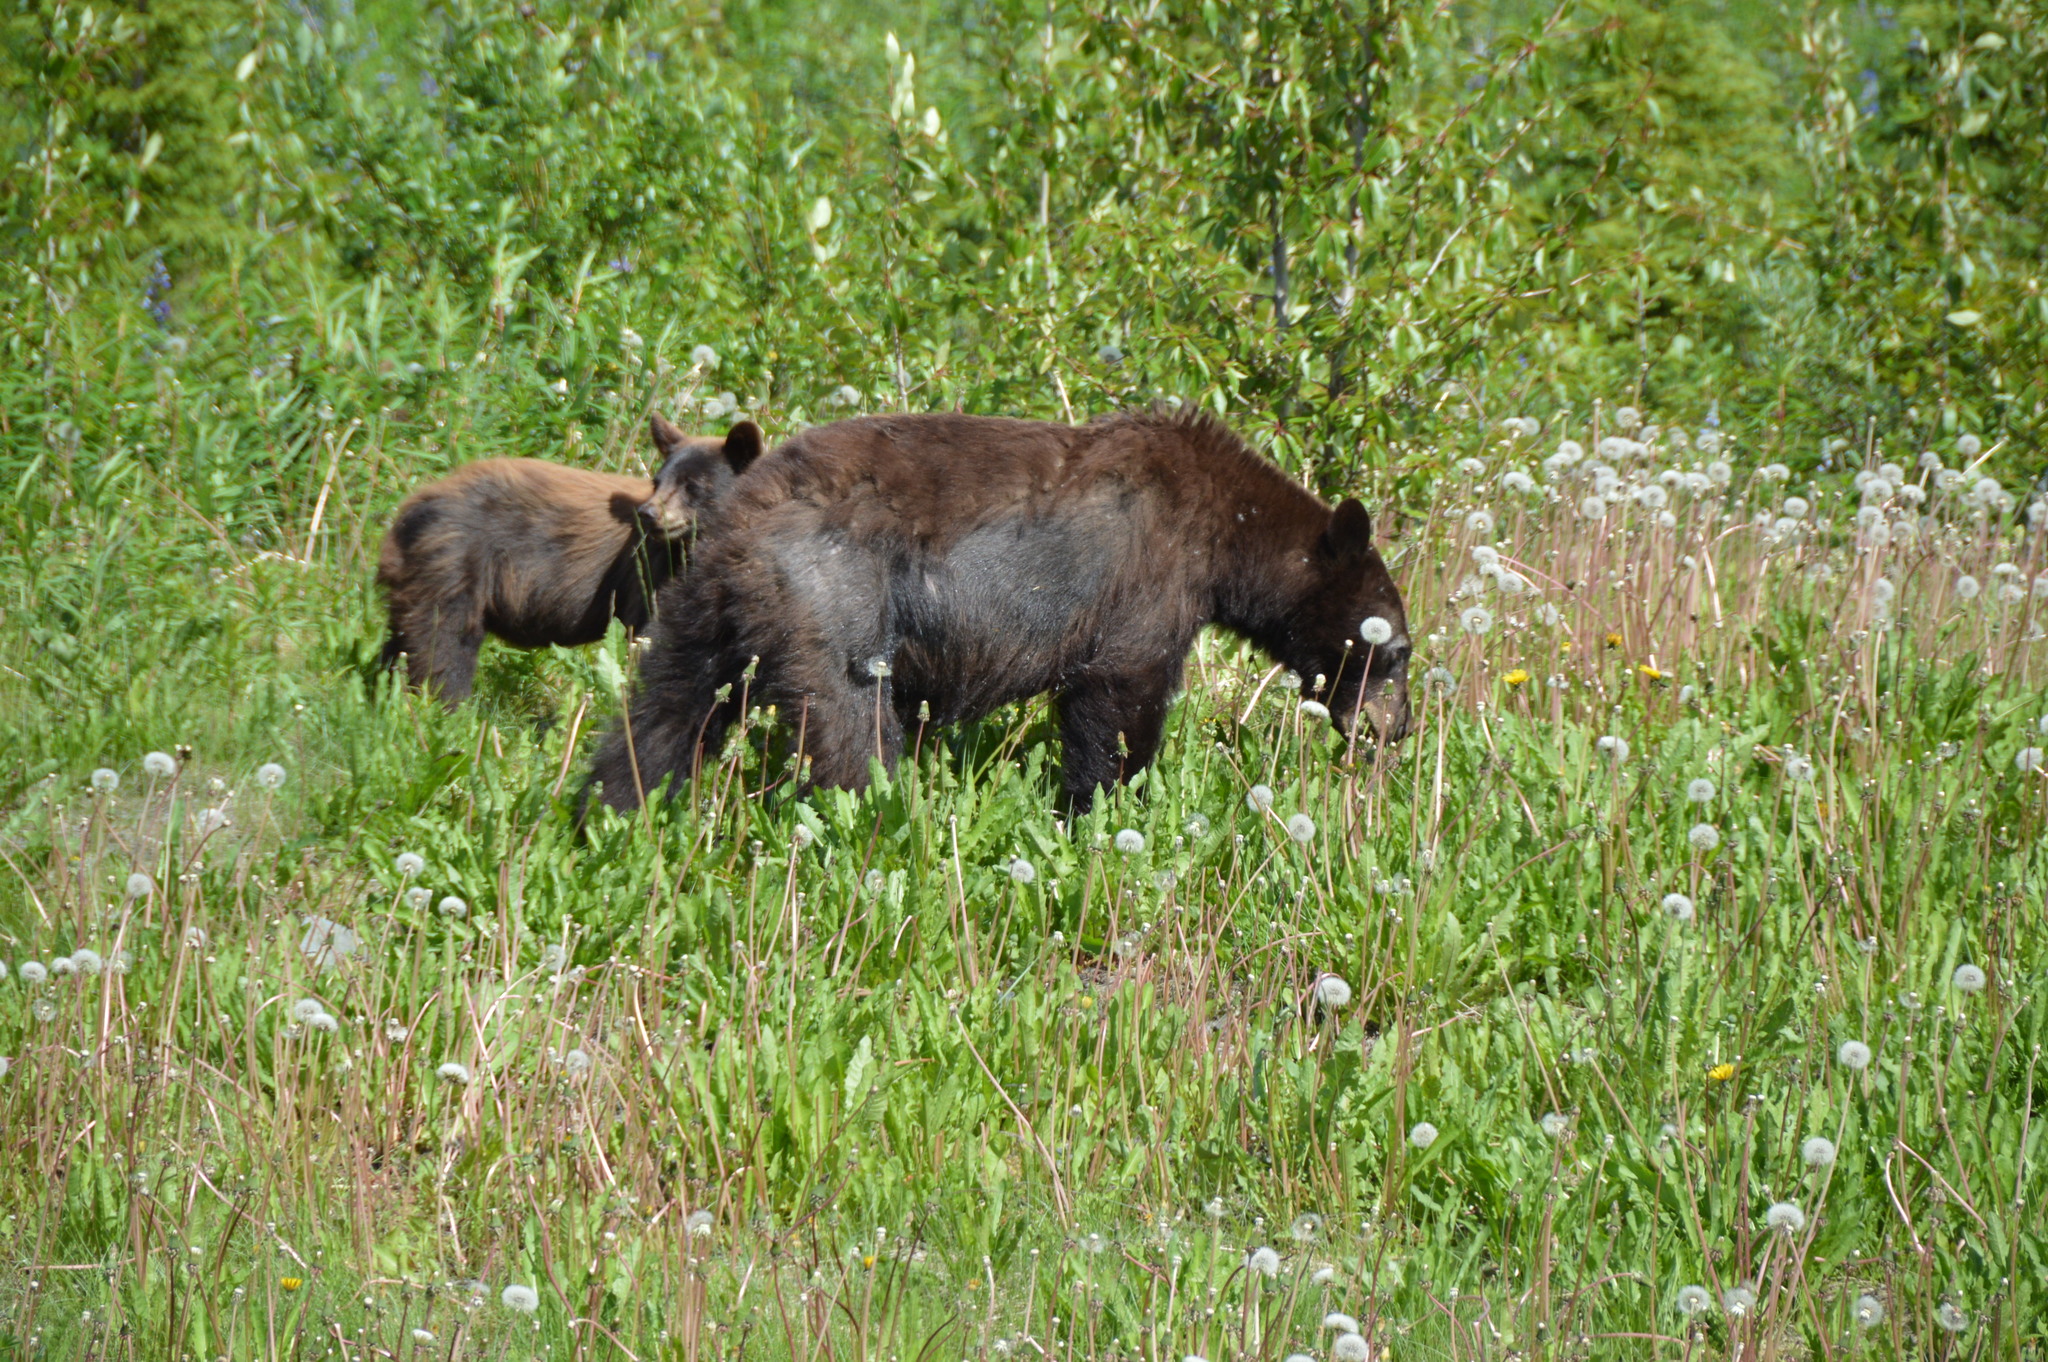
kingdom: Animalia
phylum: Chordata
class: Mammalia
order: Carnivora
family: Ursidae
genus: Ursus
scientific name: Ursus americanus
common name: American black bear
